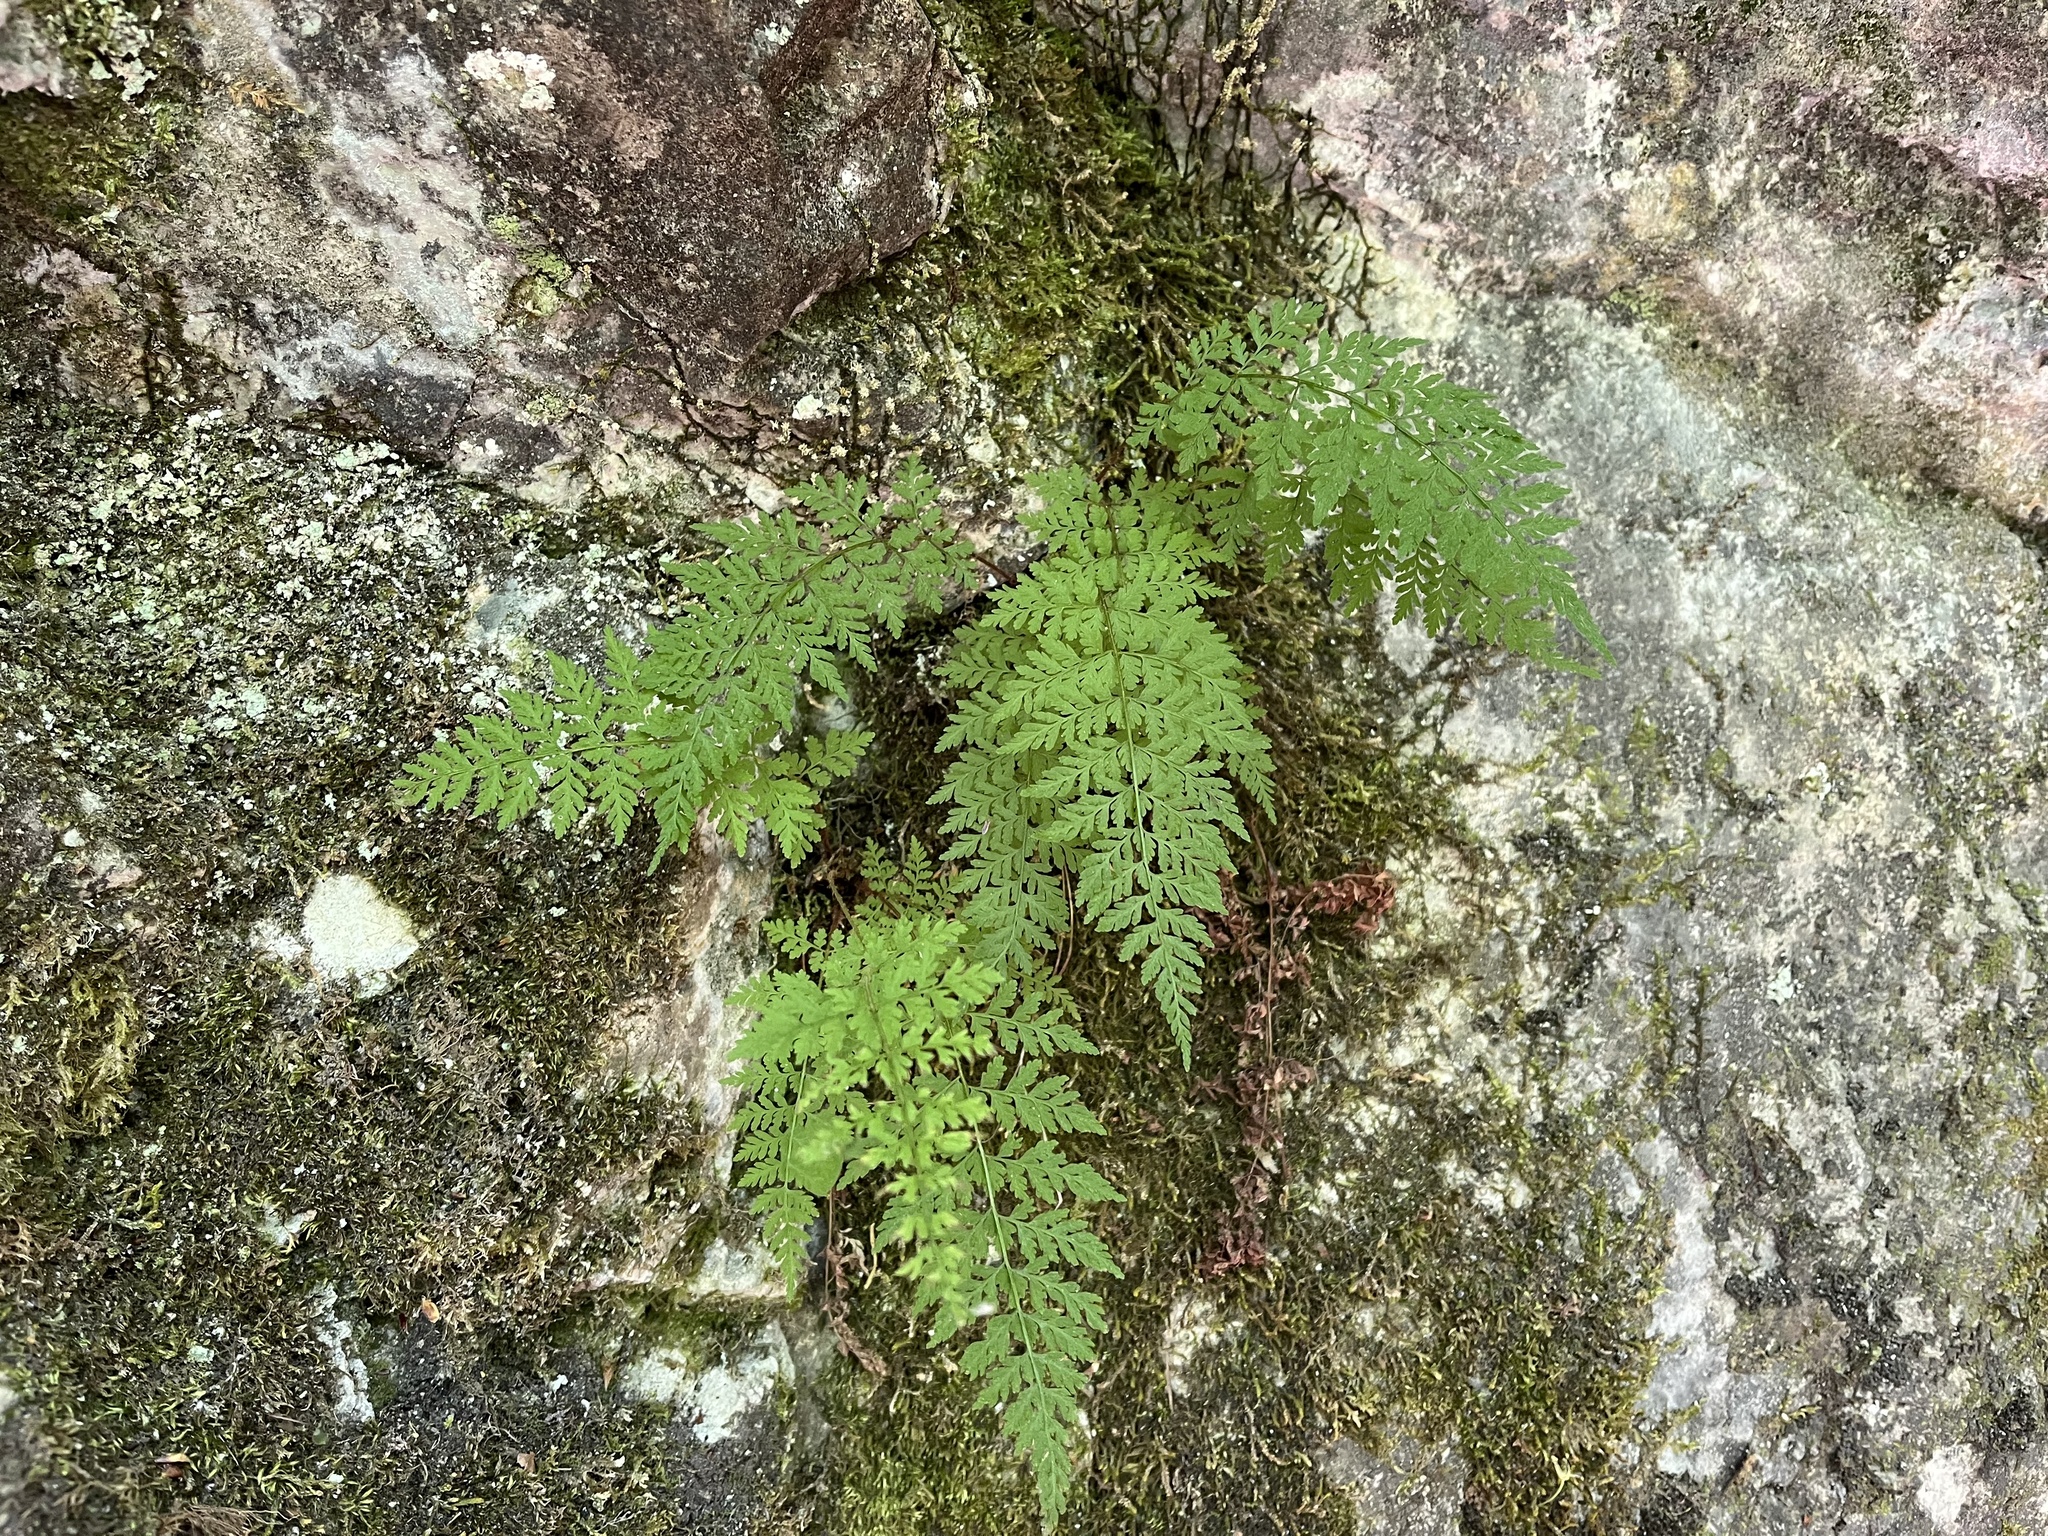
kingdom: Plantae
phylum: Tracheophyta
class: Polypodiopsida
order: Polypodiales
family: Cystopteridaceae
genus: Cystopteris
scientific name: Cystopteris fragilis
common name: Brittle bladder fern
